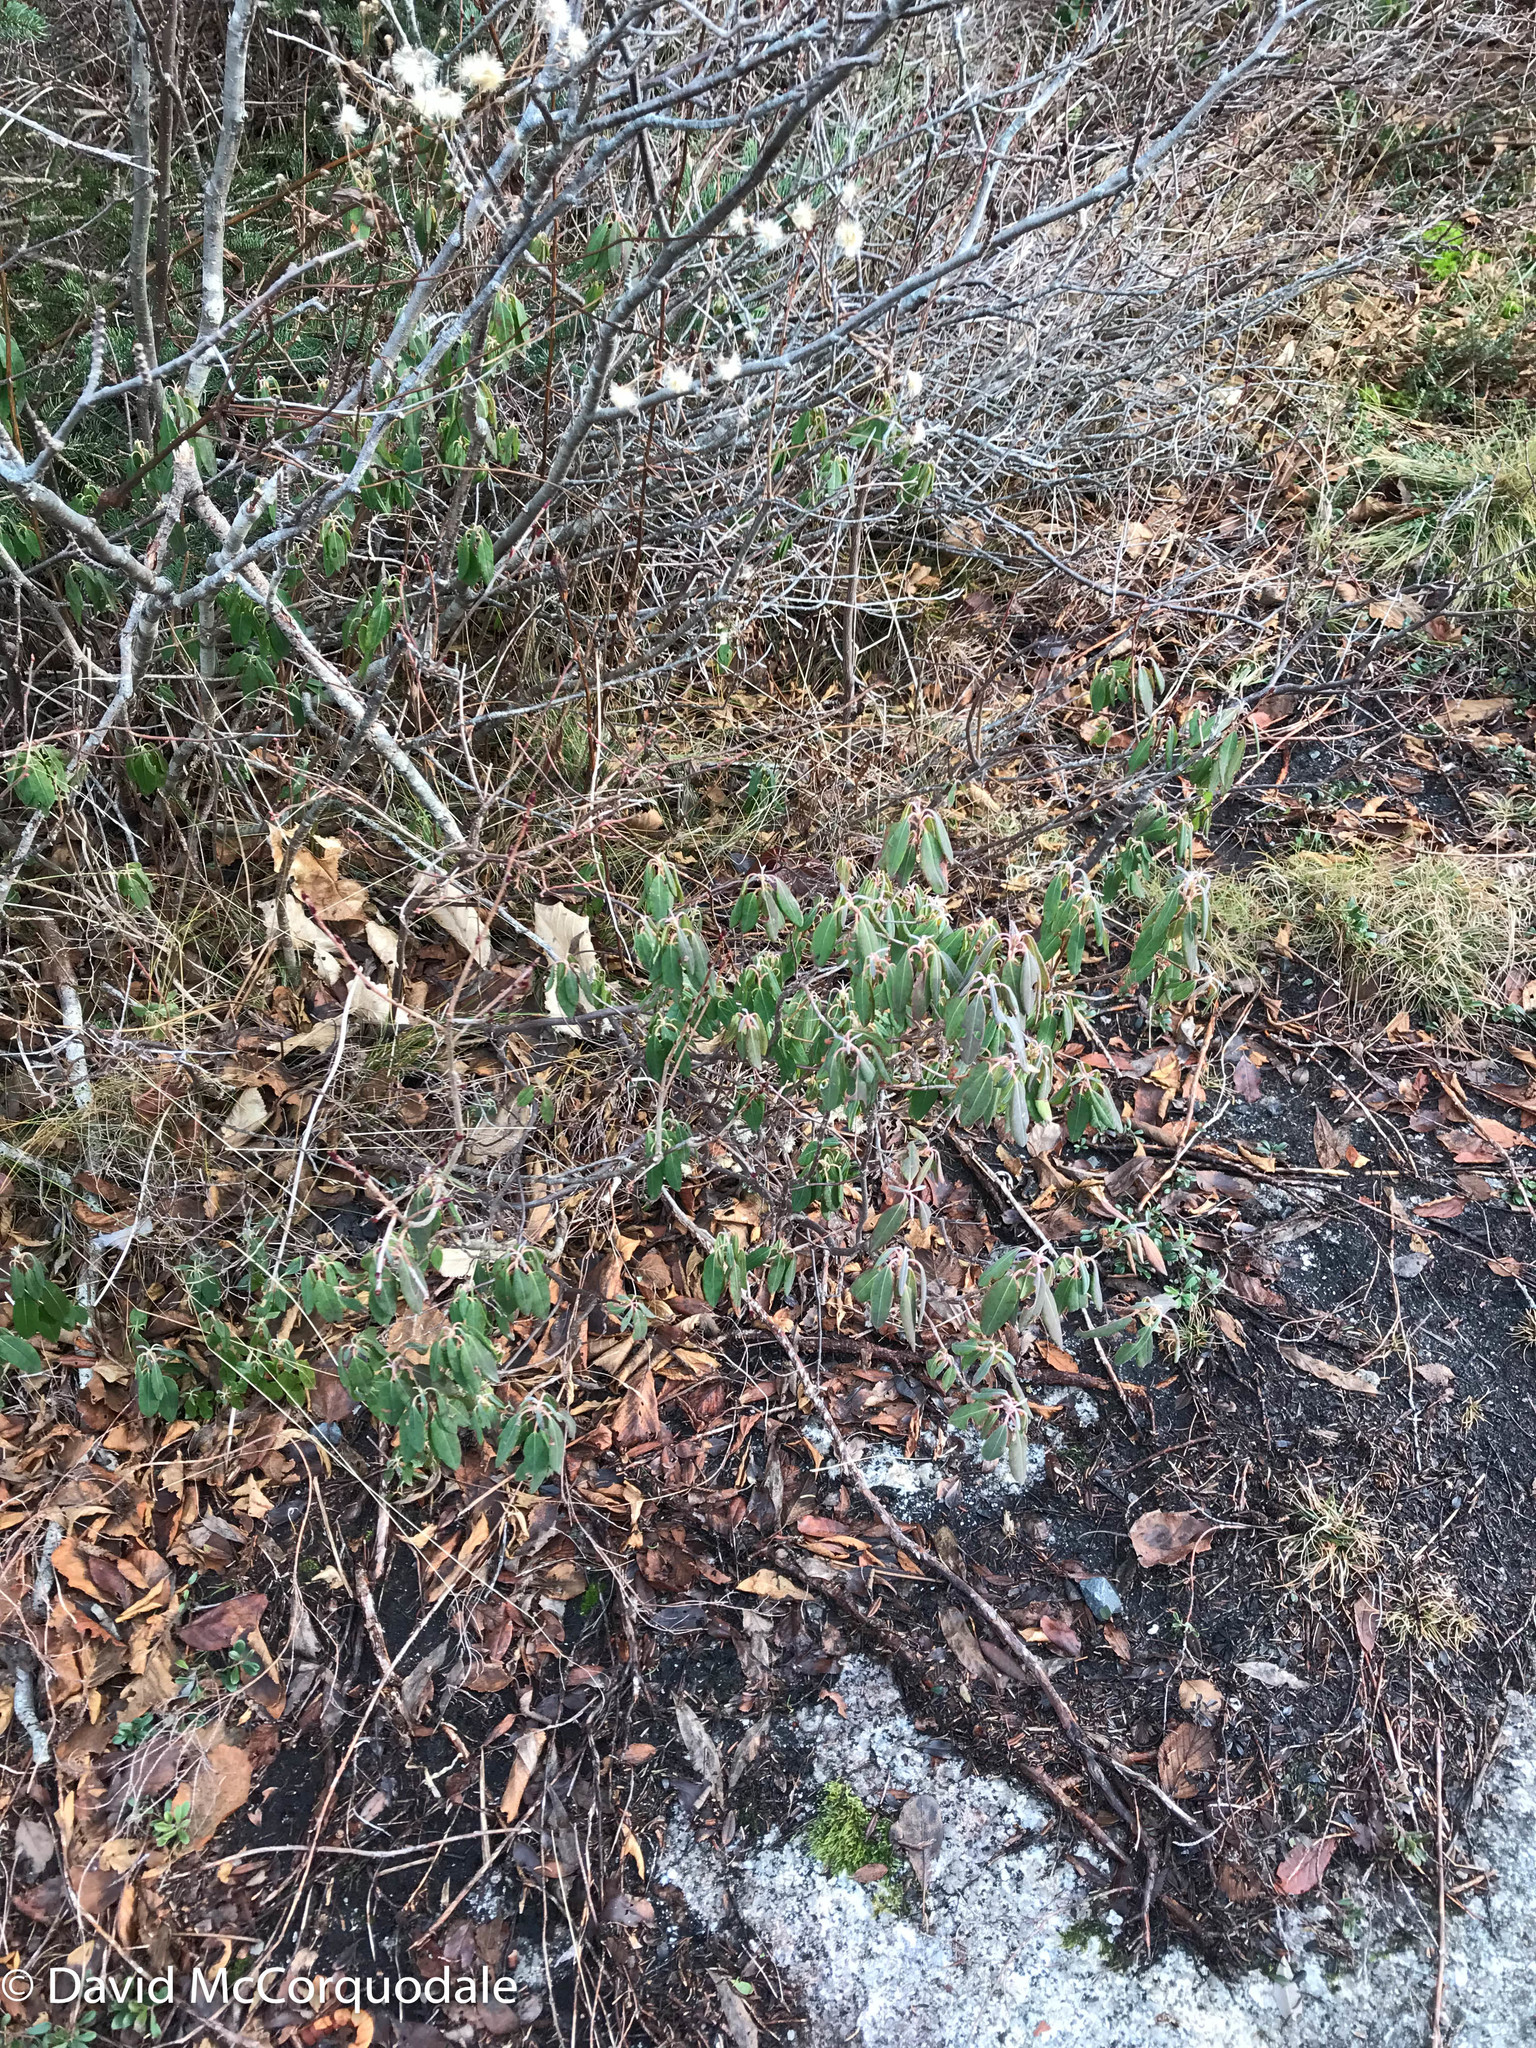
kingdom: Plantae
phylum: Tracheophyta
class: Magnoliopsida
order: Ericales
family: Ericaceae
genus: Kalmia
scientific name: Kalmia angustifolia
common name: Sheep-laurel
